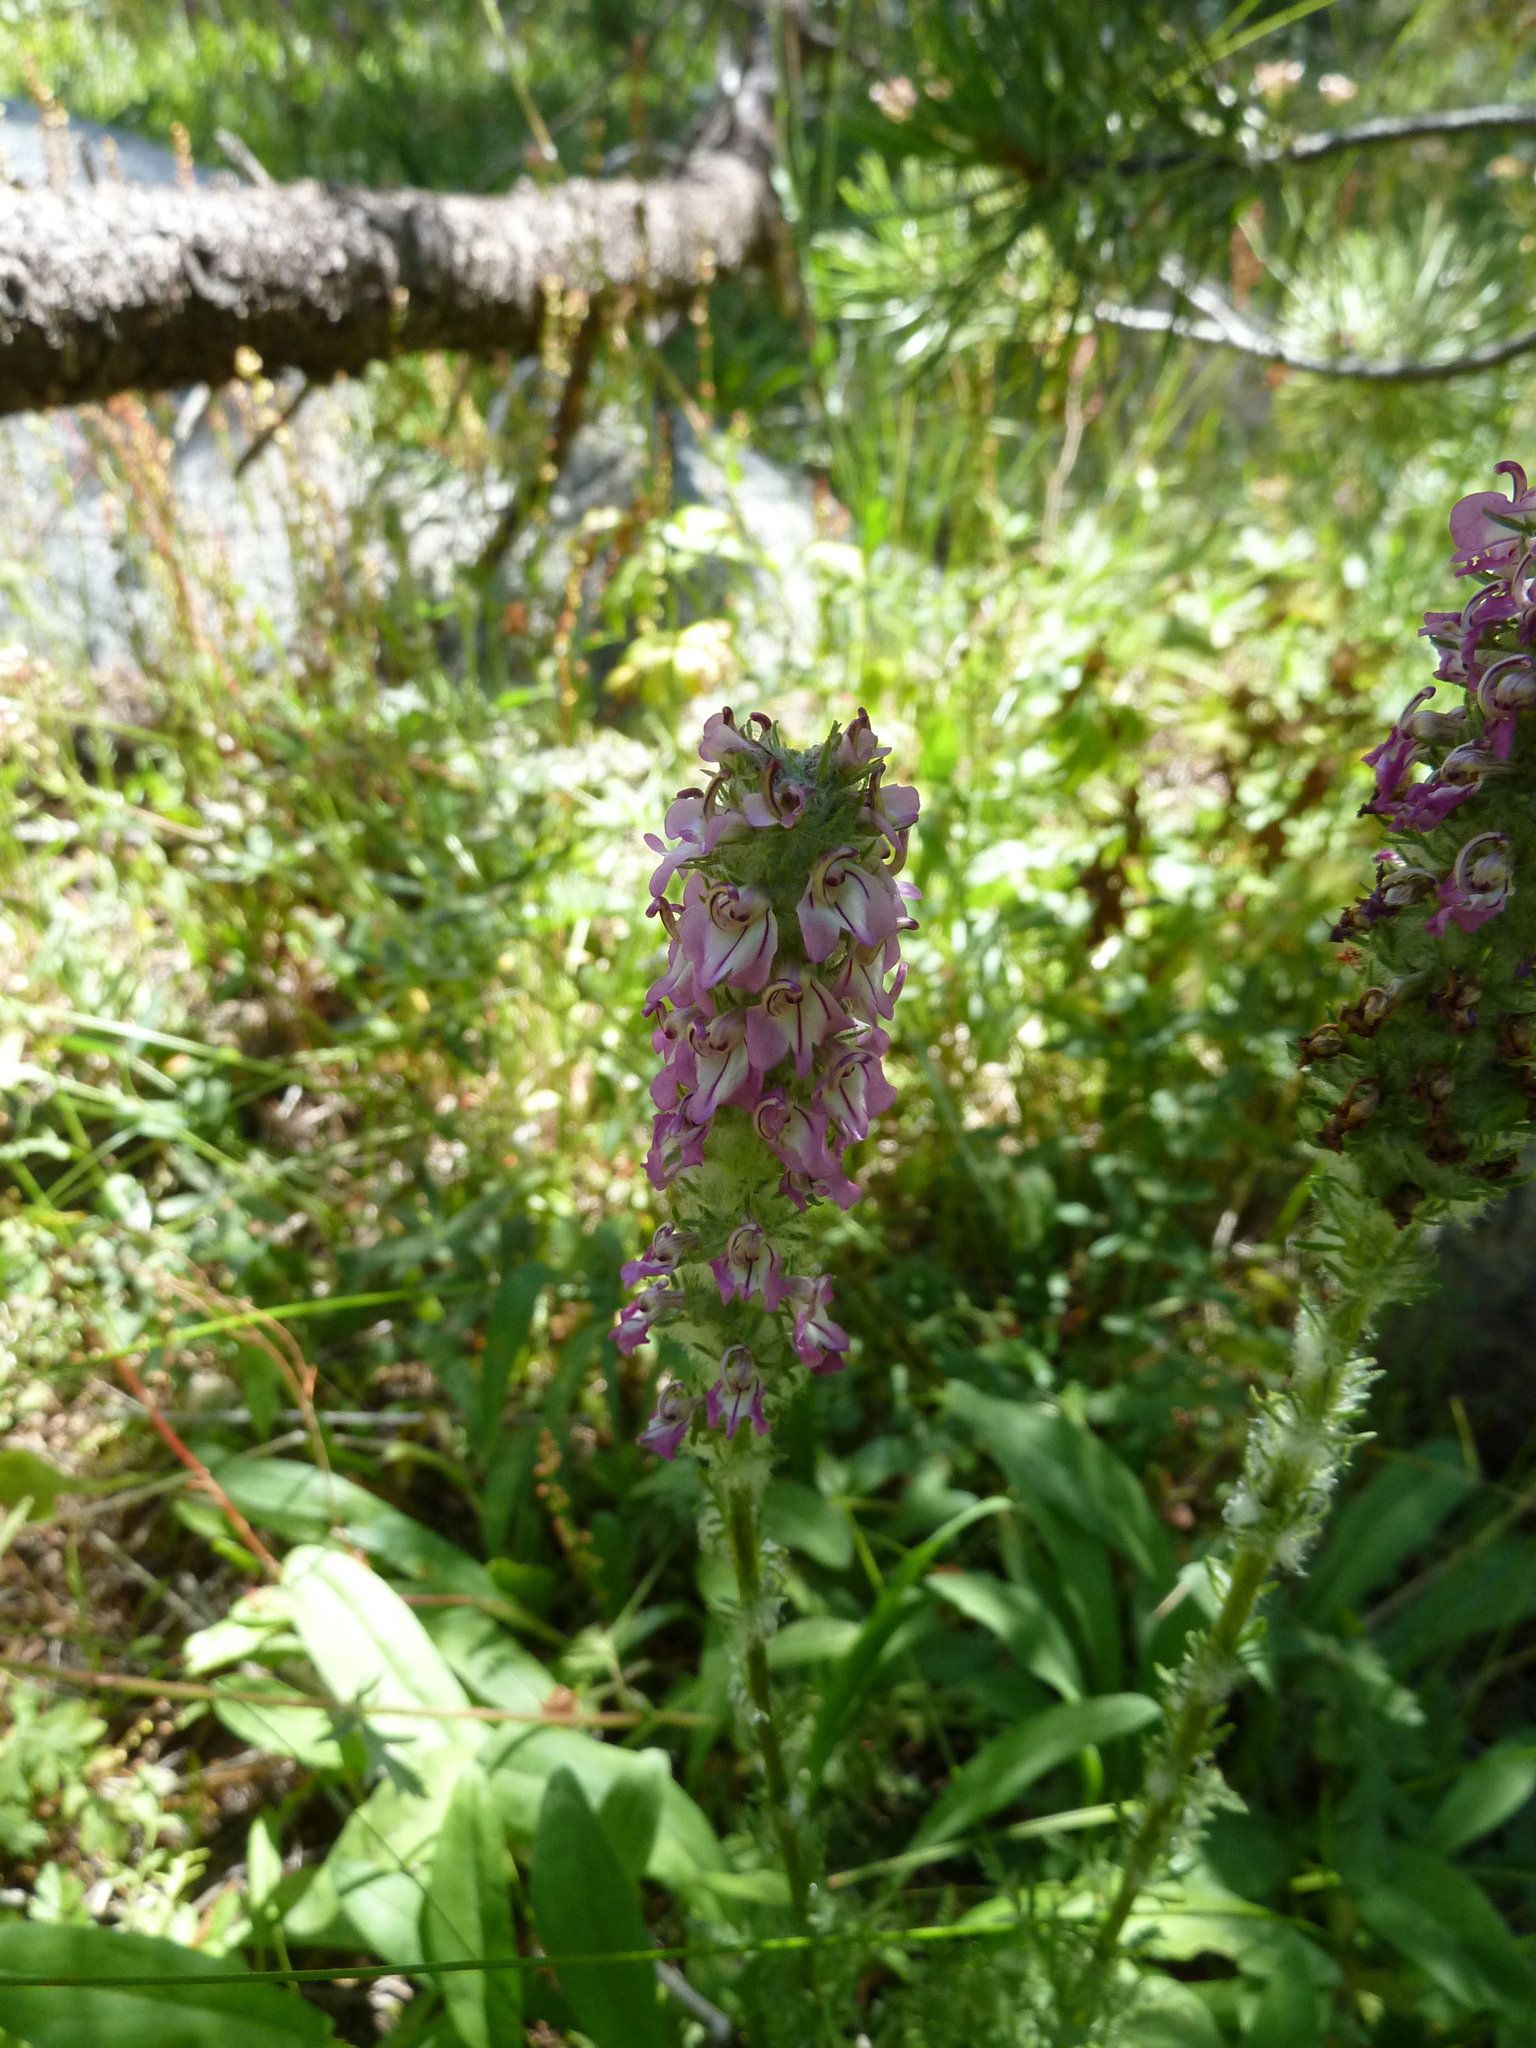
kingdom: Plantae
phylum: Tracheophyta
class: Magnoliopsida
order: Lamiales
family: Orobanchaceae
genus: Pedicularis
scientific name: Pedicularis attollens
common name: Slender pedicularis
